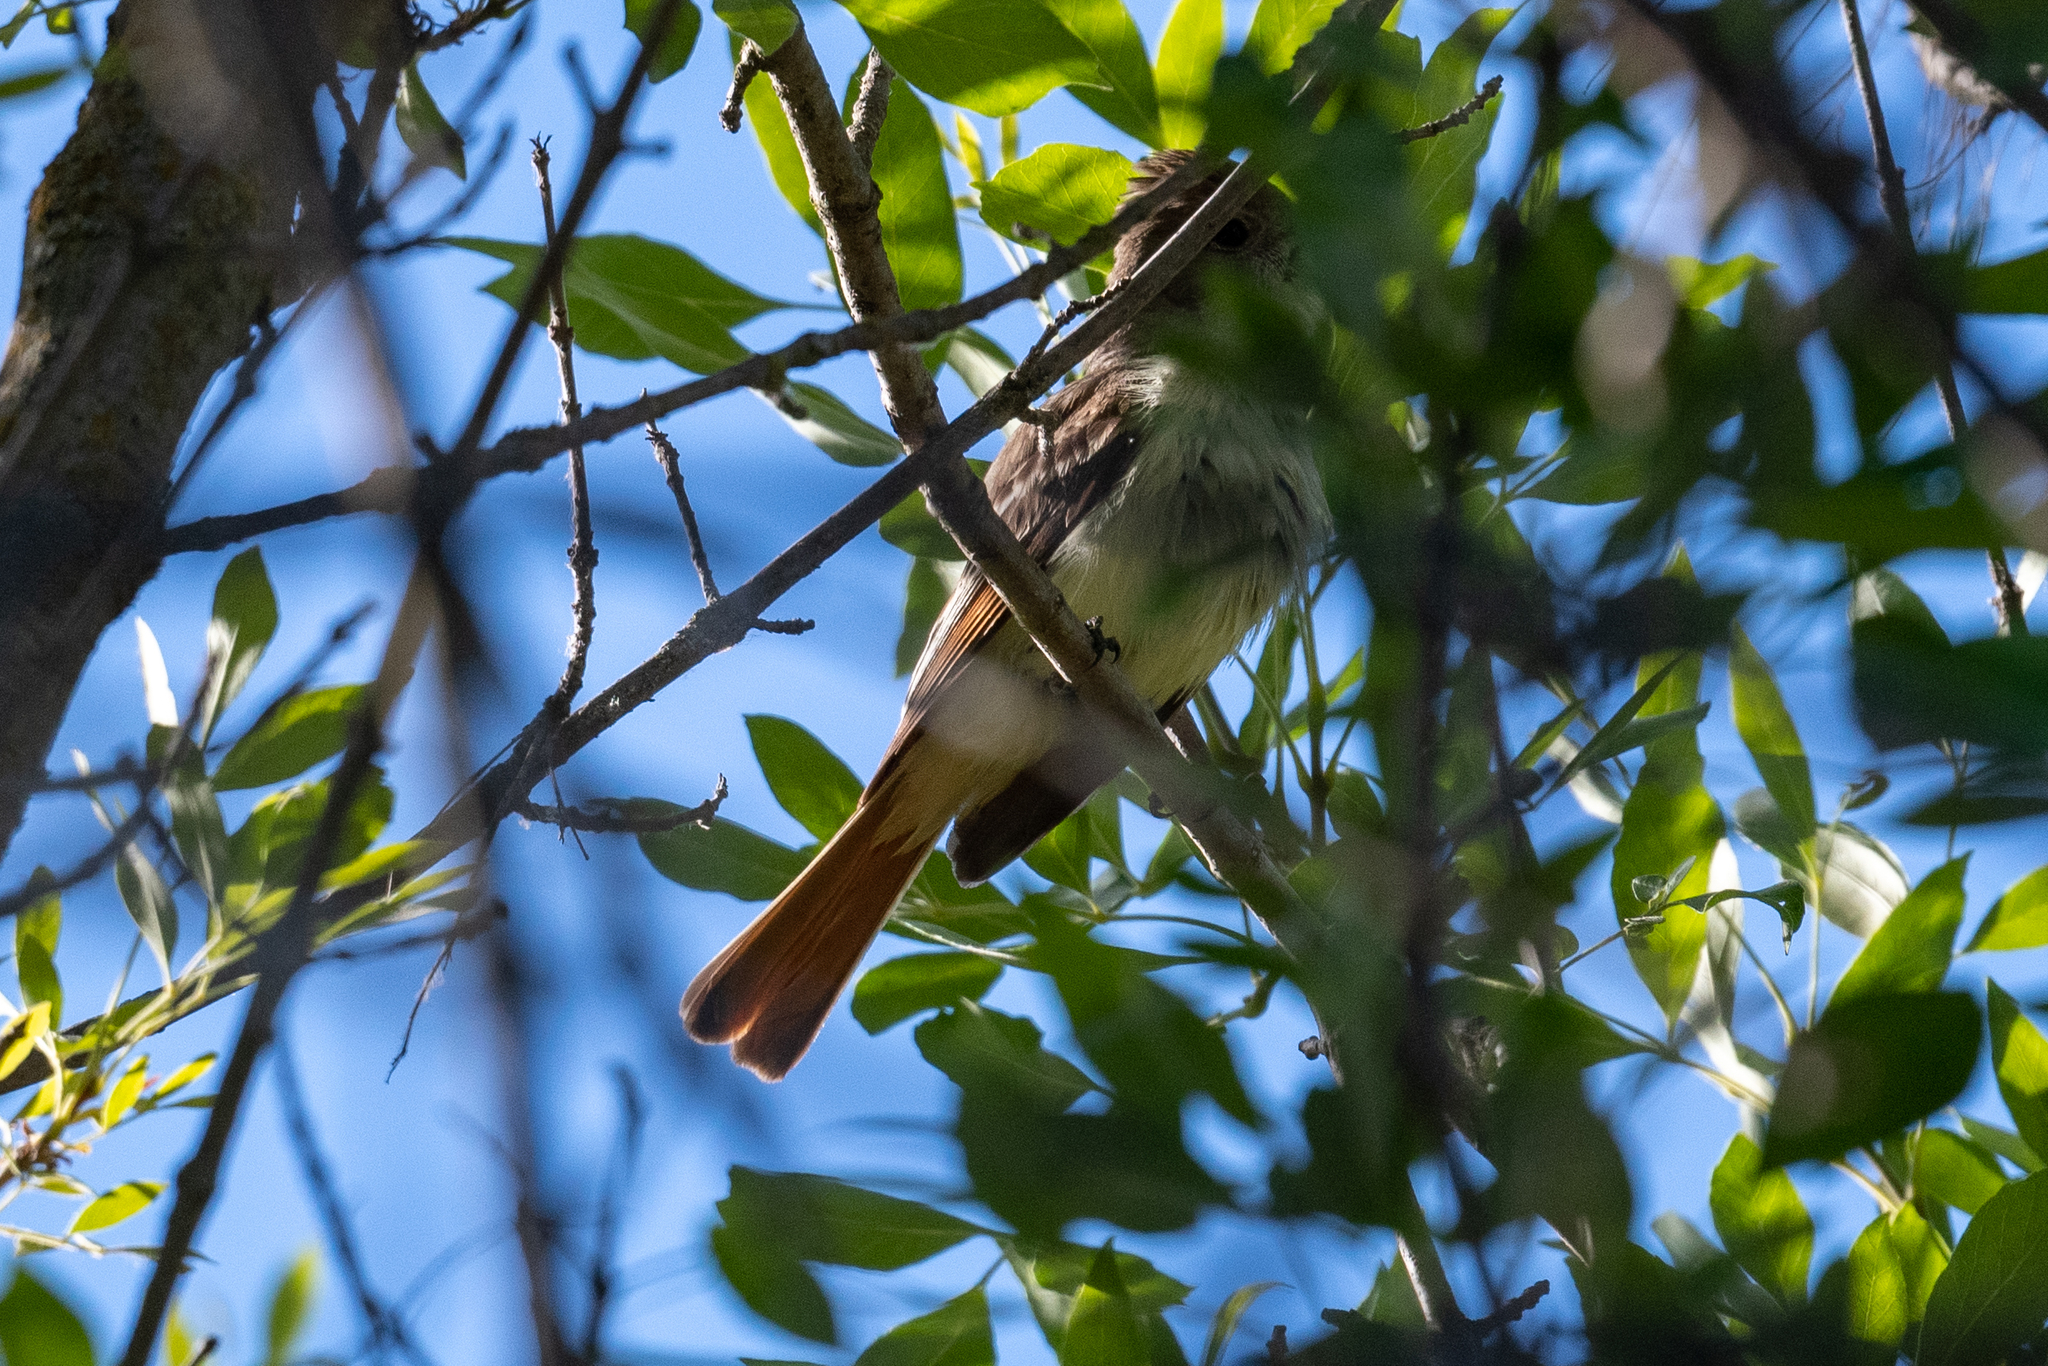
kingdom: Animalia
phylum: Chordata
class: Aves
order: Passeriformes
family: Tyrannidae
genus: Myiarchus
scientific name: Myiarchus cinerascens
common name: Ash-throated flycatcher
